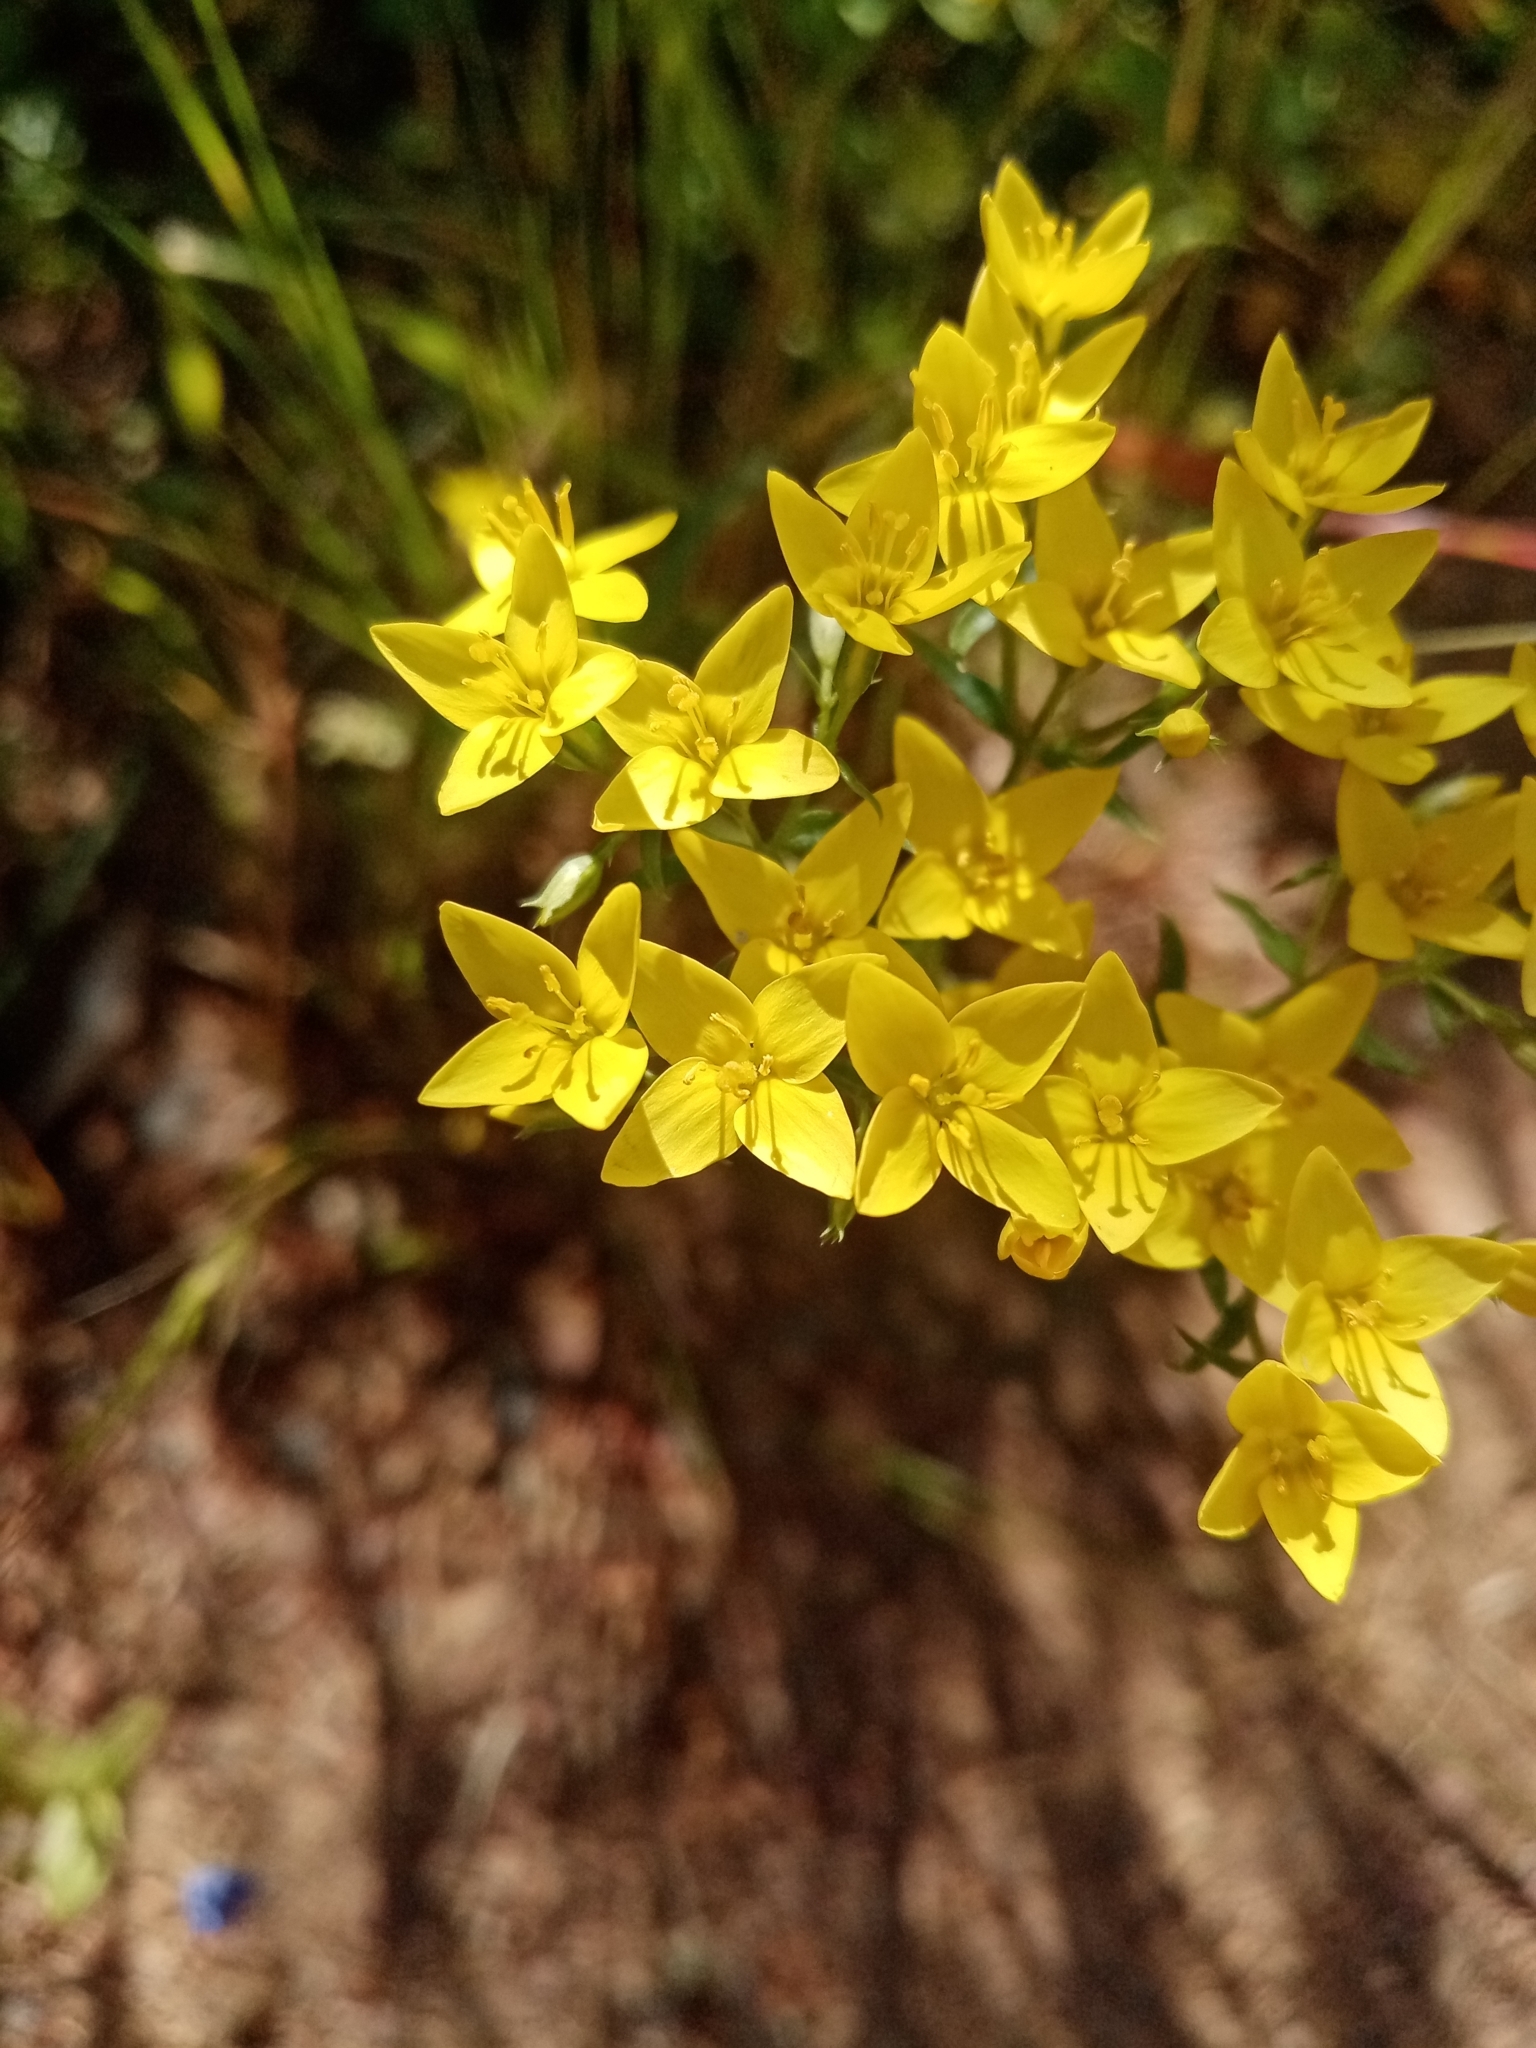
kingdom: Plantae
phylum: Tracheophyta
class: Magnoliopsida
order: Gentianales
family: Gentianaceae
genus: Sebaea
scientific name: Sebaea aurea
